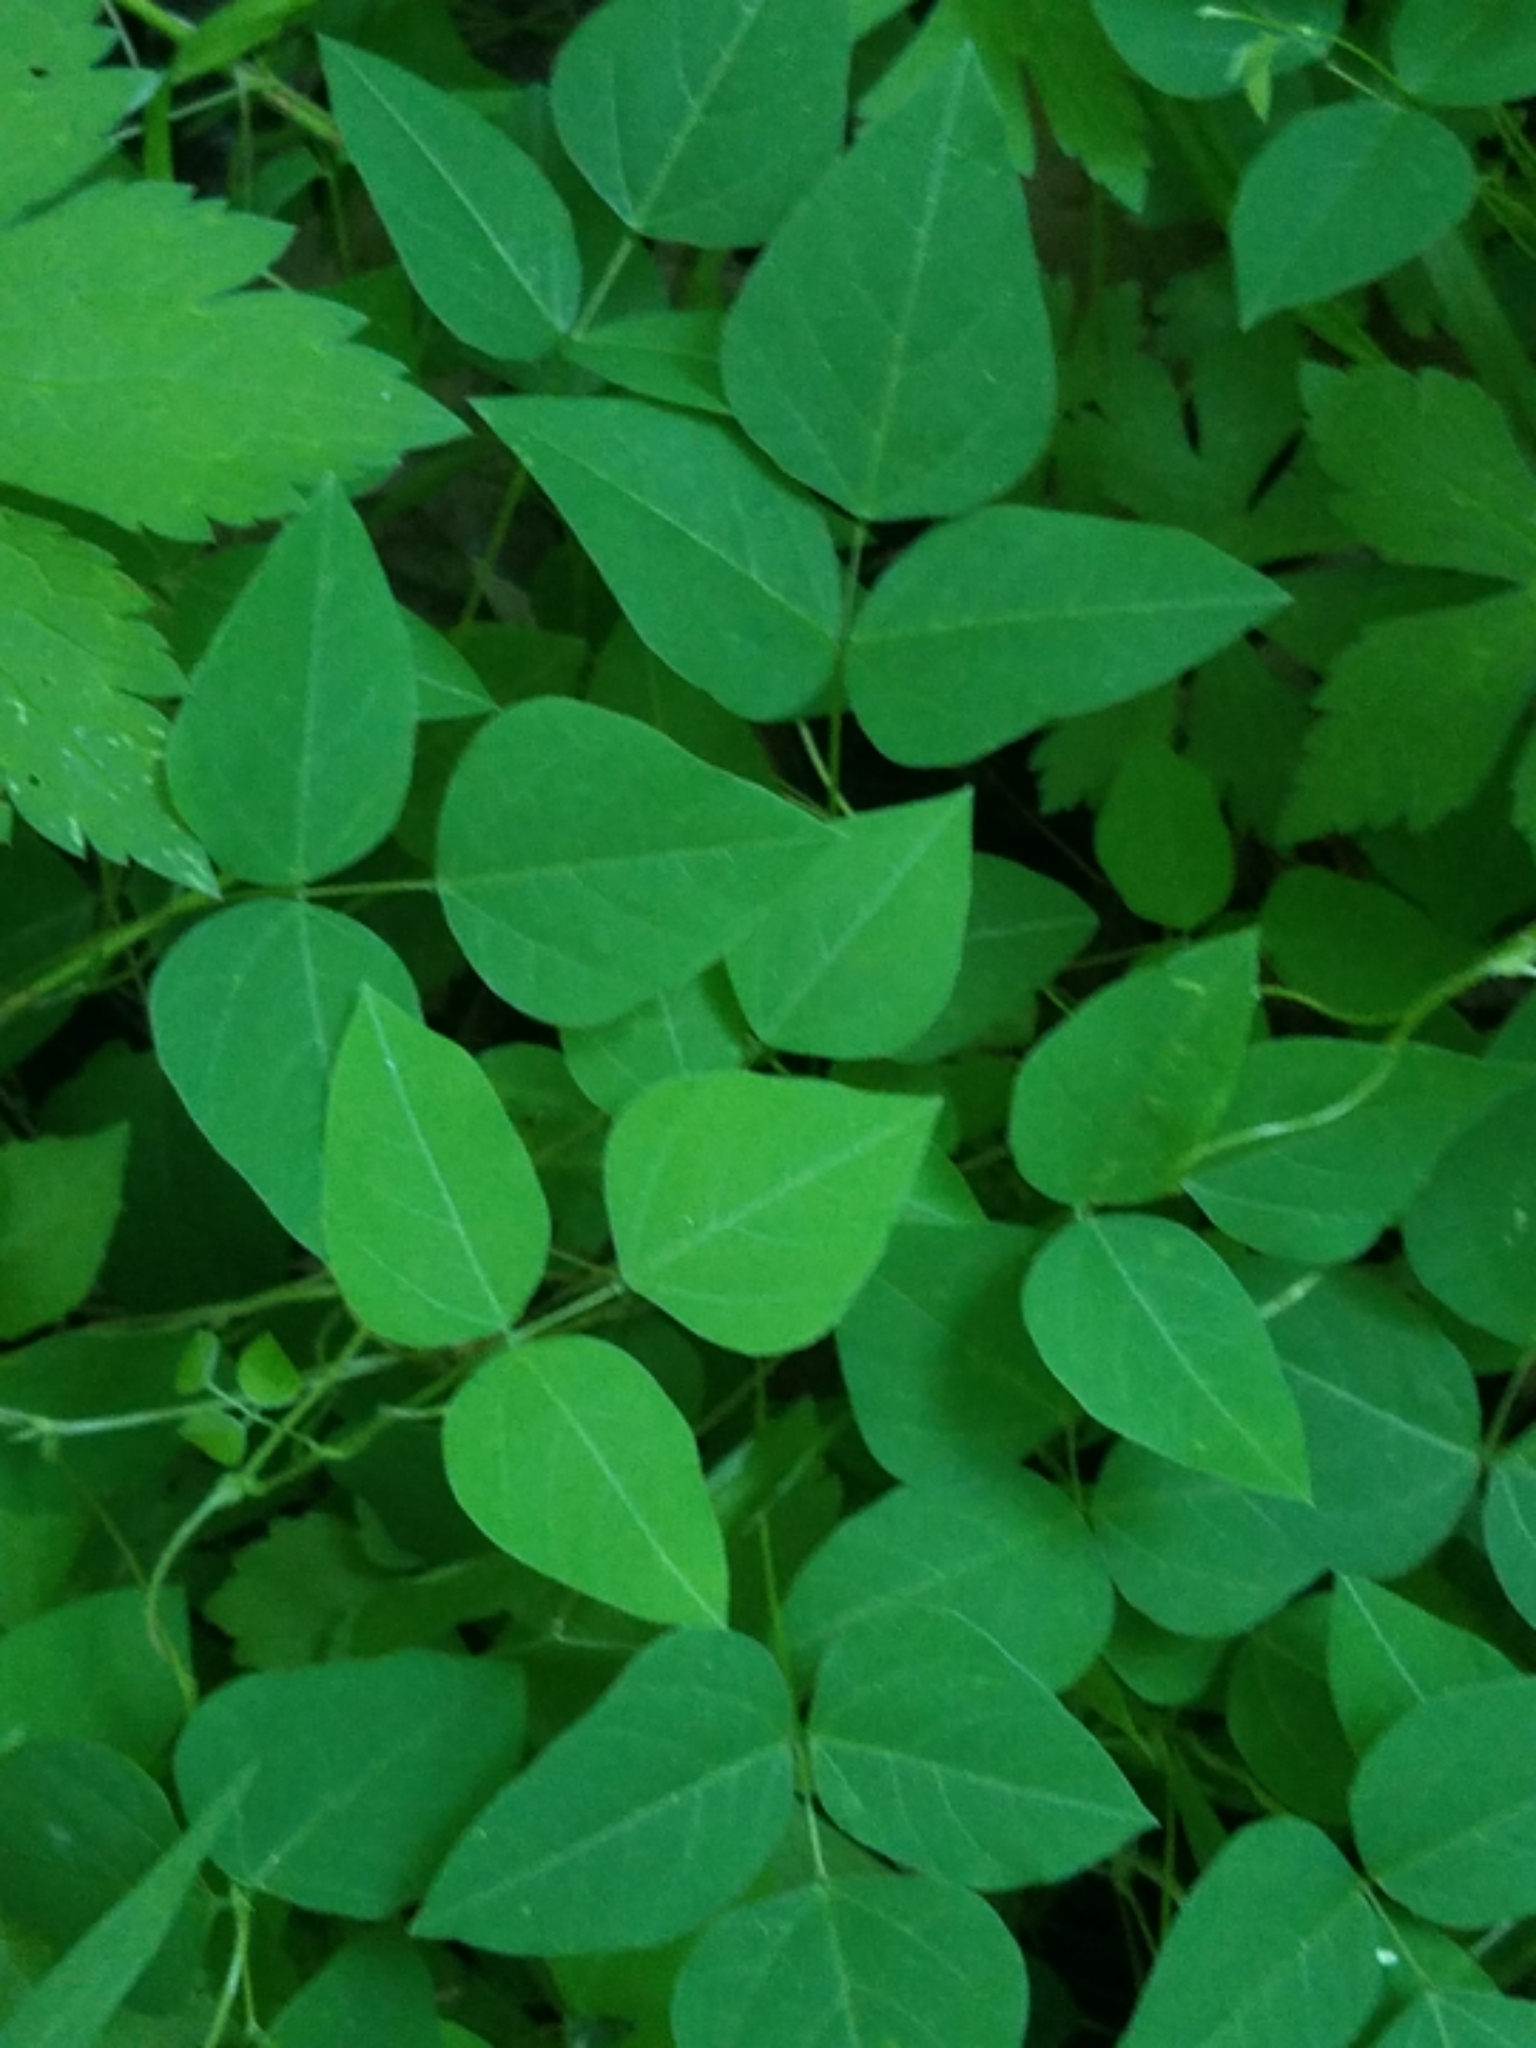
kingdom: Plantae
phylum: Tracheophyta
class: Magnoliopsida
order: Fabales
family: Fabaceae
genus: Amphicarpaea
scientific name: Amphicarpaea bracteata
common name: American hog peanut
